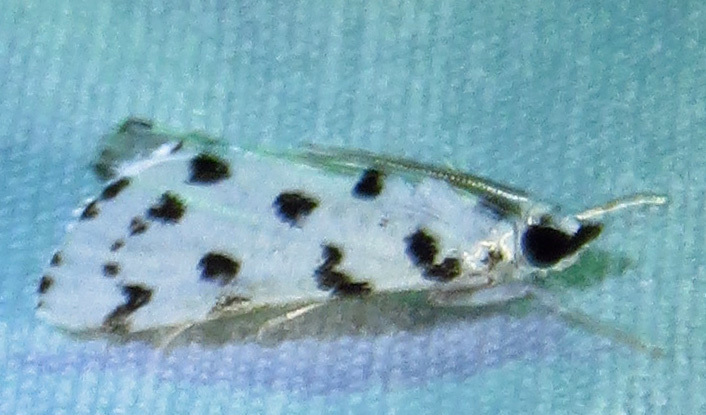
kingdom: Animalia
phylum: Arthropoda
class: Insecta
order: Lepidoptera
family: Crambidae
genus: Eustixia
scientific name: Eustixia pupula
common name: American cabbage pearl
